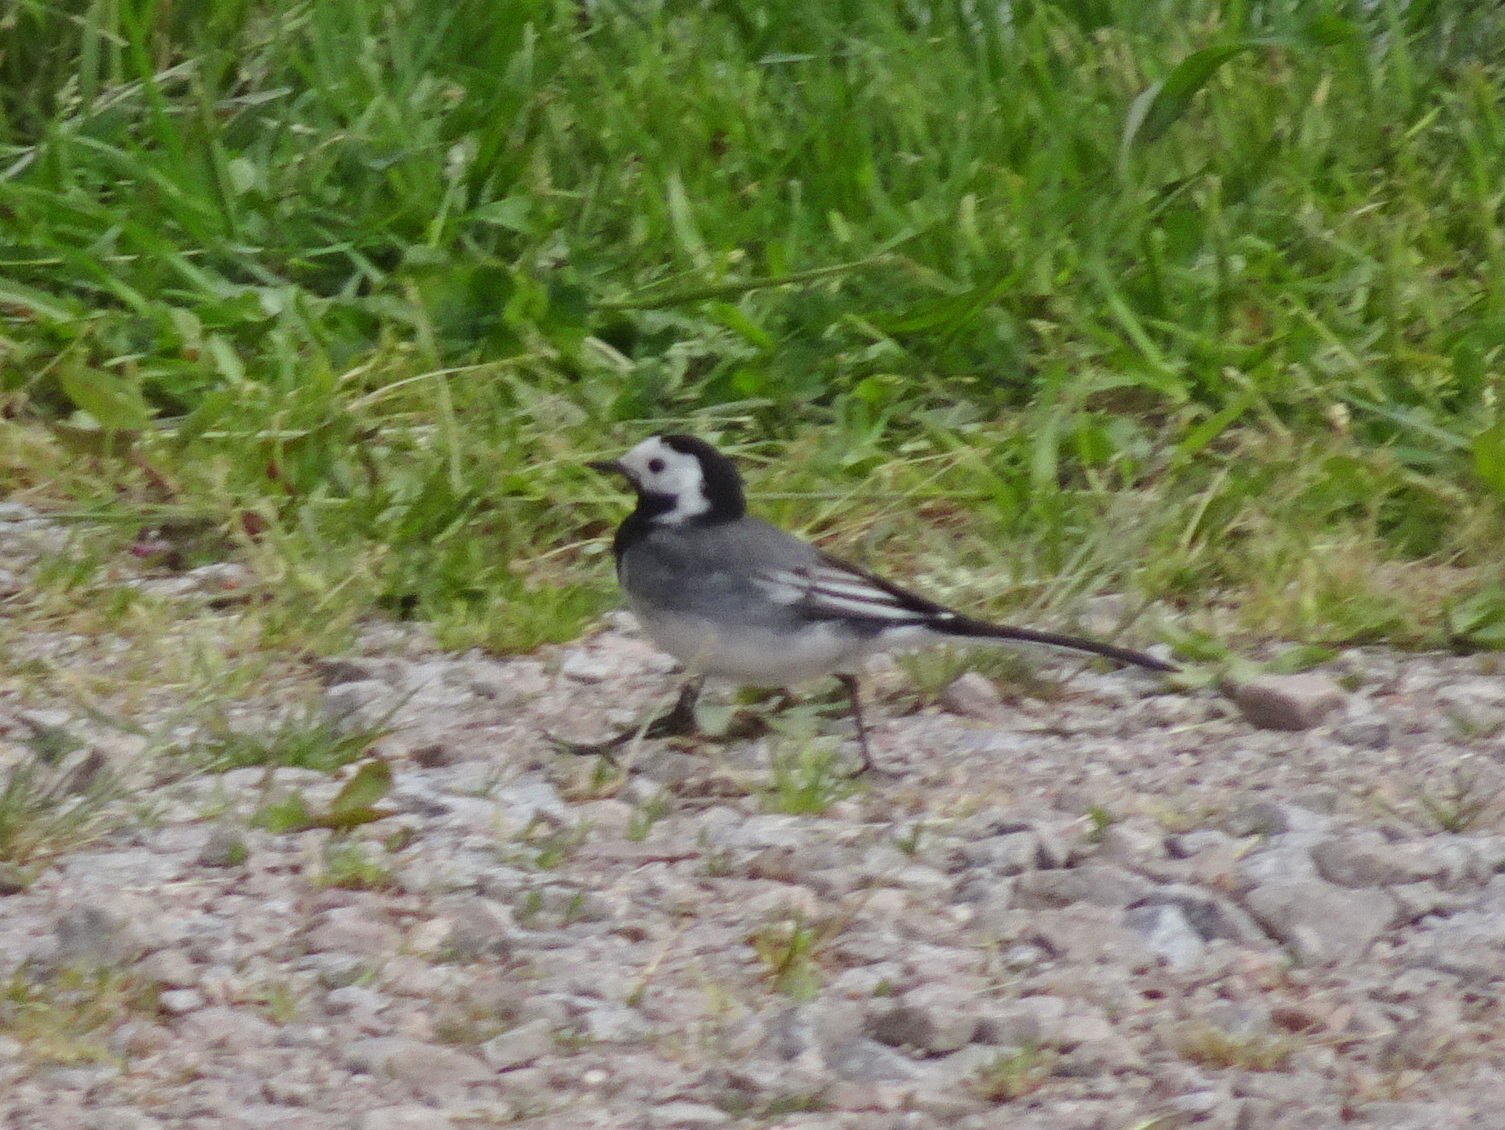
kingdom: Animalia
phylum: Chordata
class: Aves
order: Passeriformes
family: Motacillidae
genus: Motacilla
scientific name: Motacilla alba
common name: White wagtail
